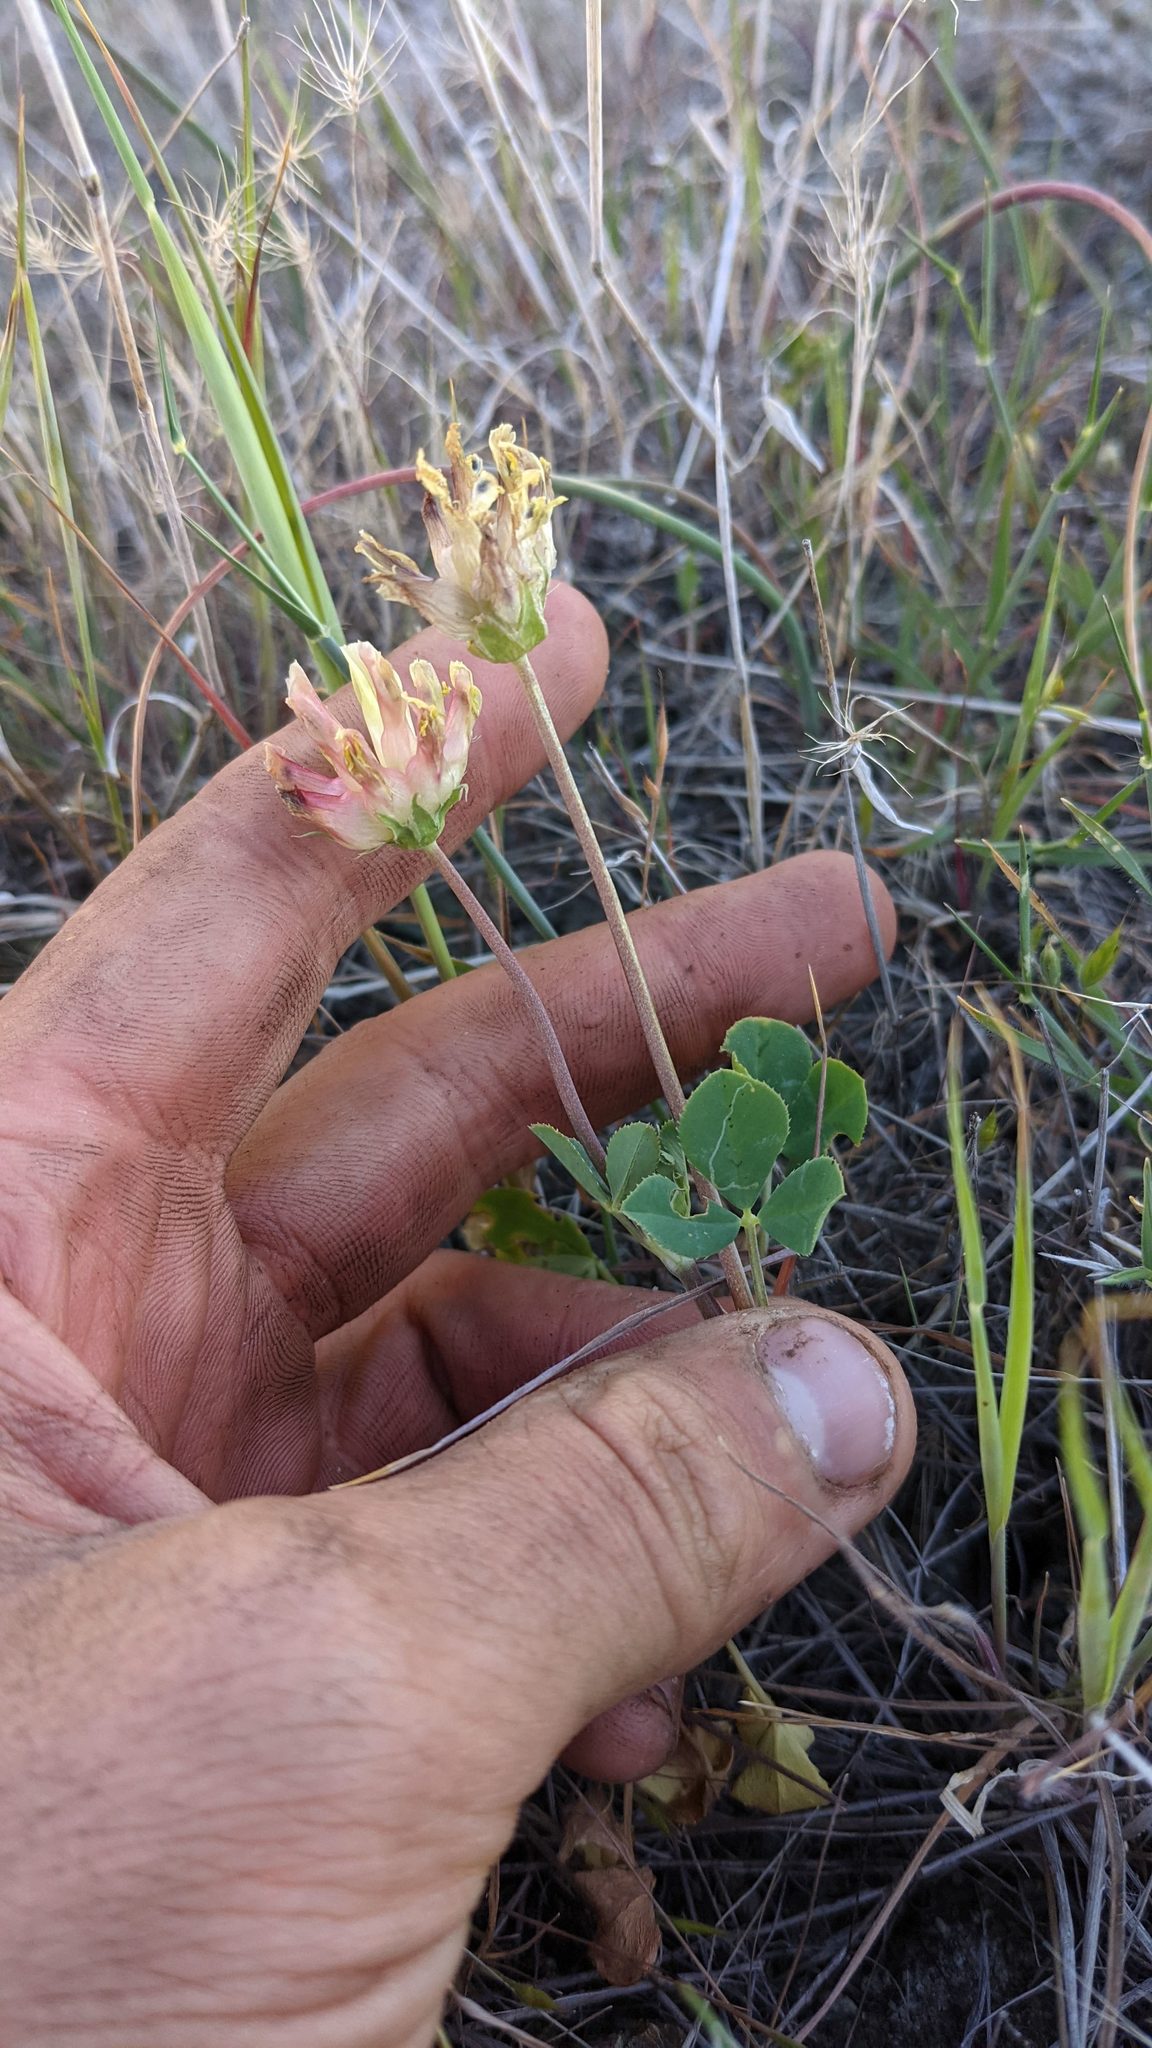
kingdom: Plantae
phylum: Tracheophyta
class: Magnoliopsida
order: Fabales
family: Fabaceae
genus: Trifolium
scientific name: Trifolium fucatum
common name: Puff clover
